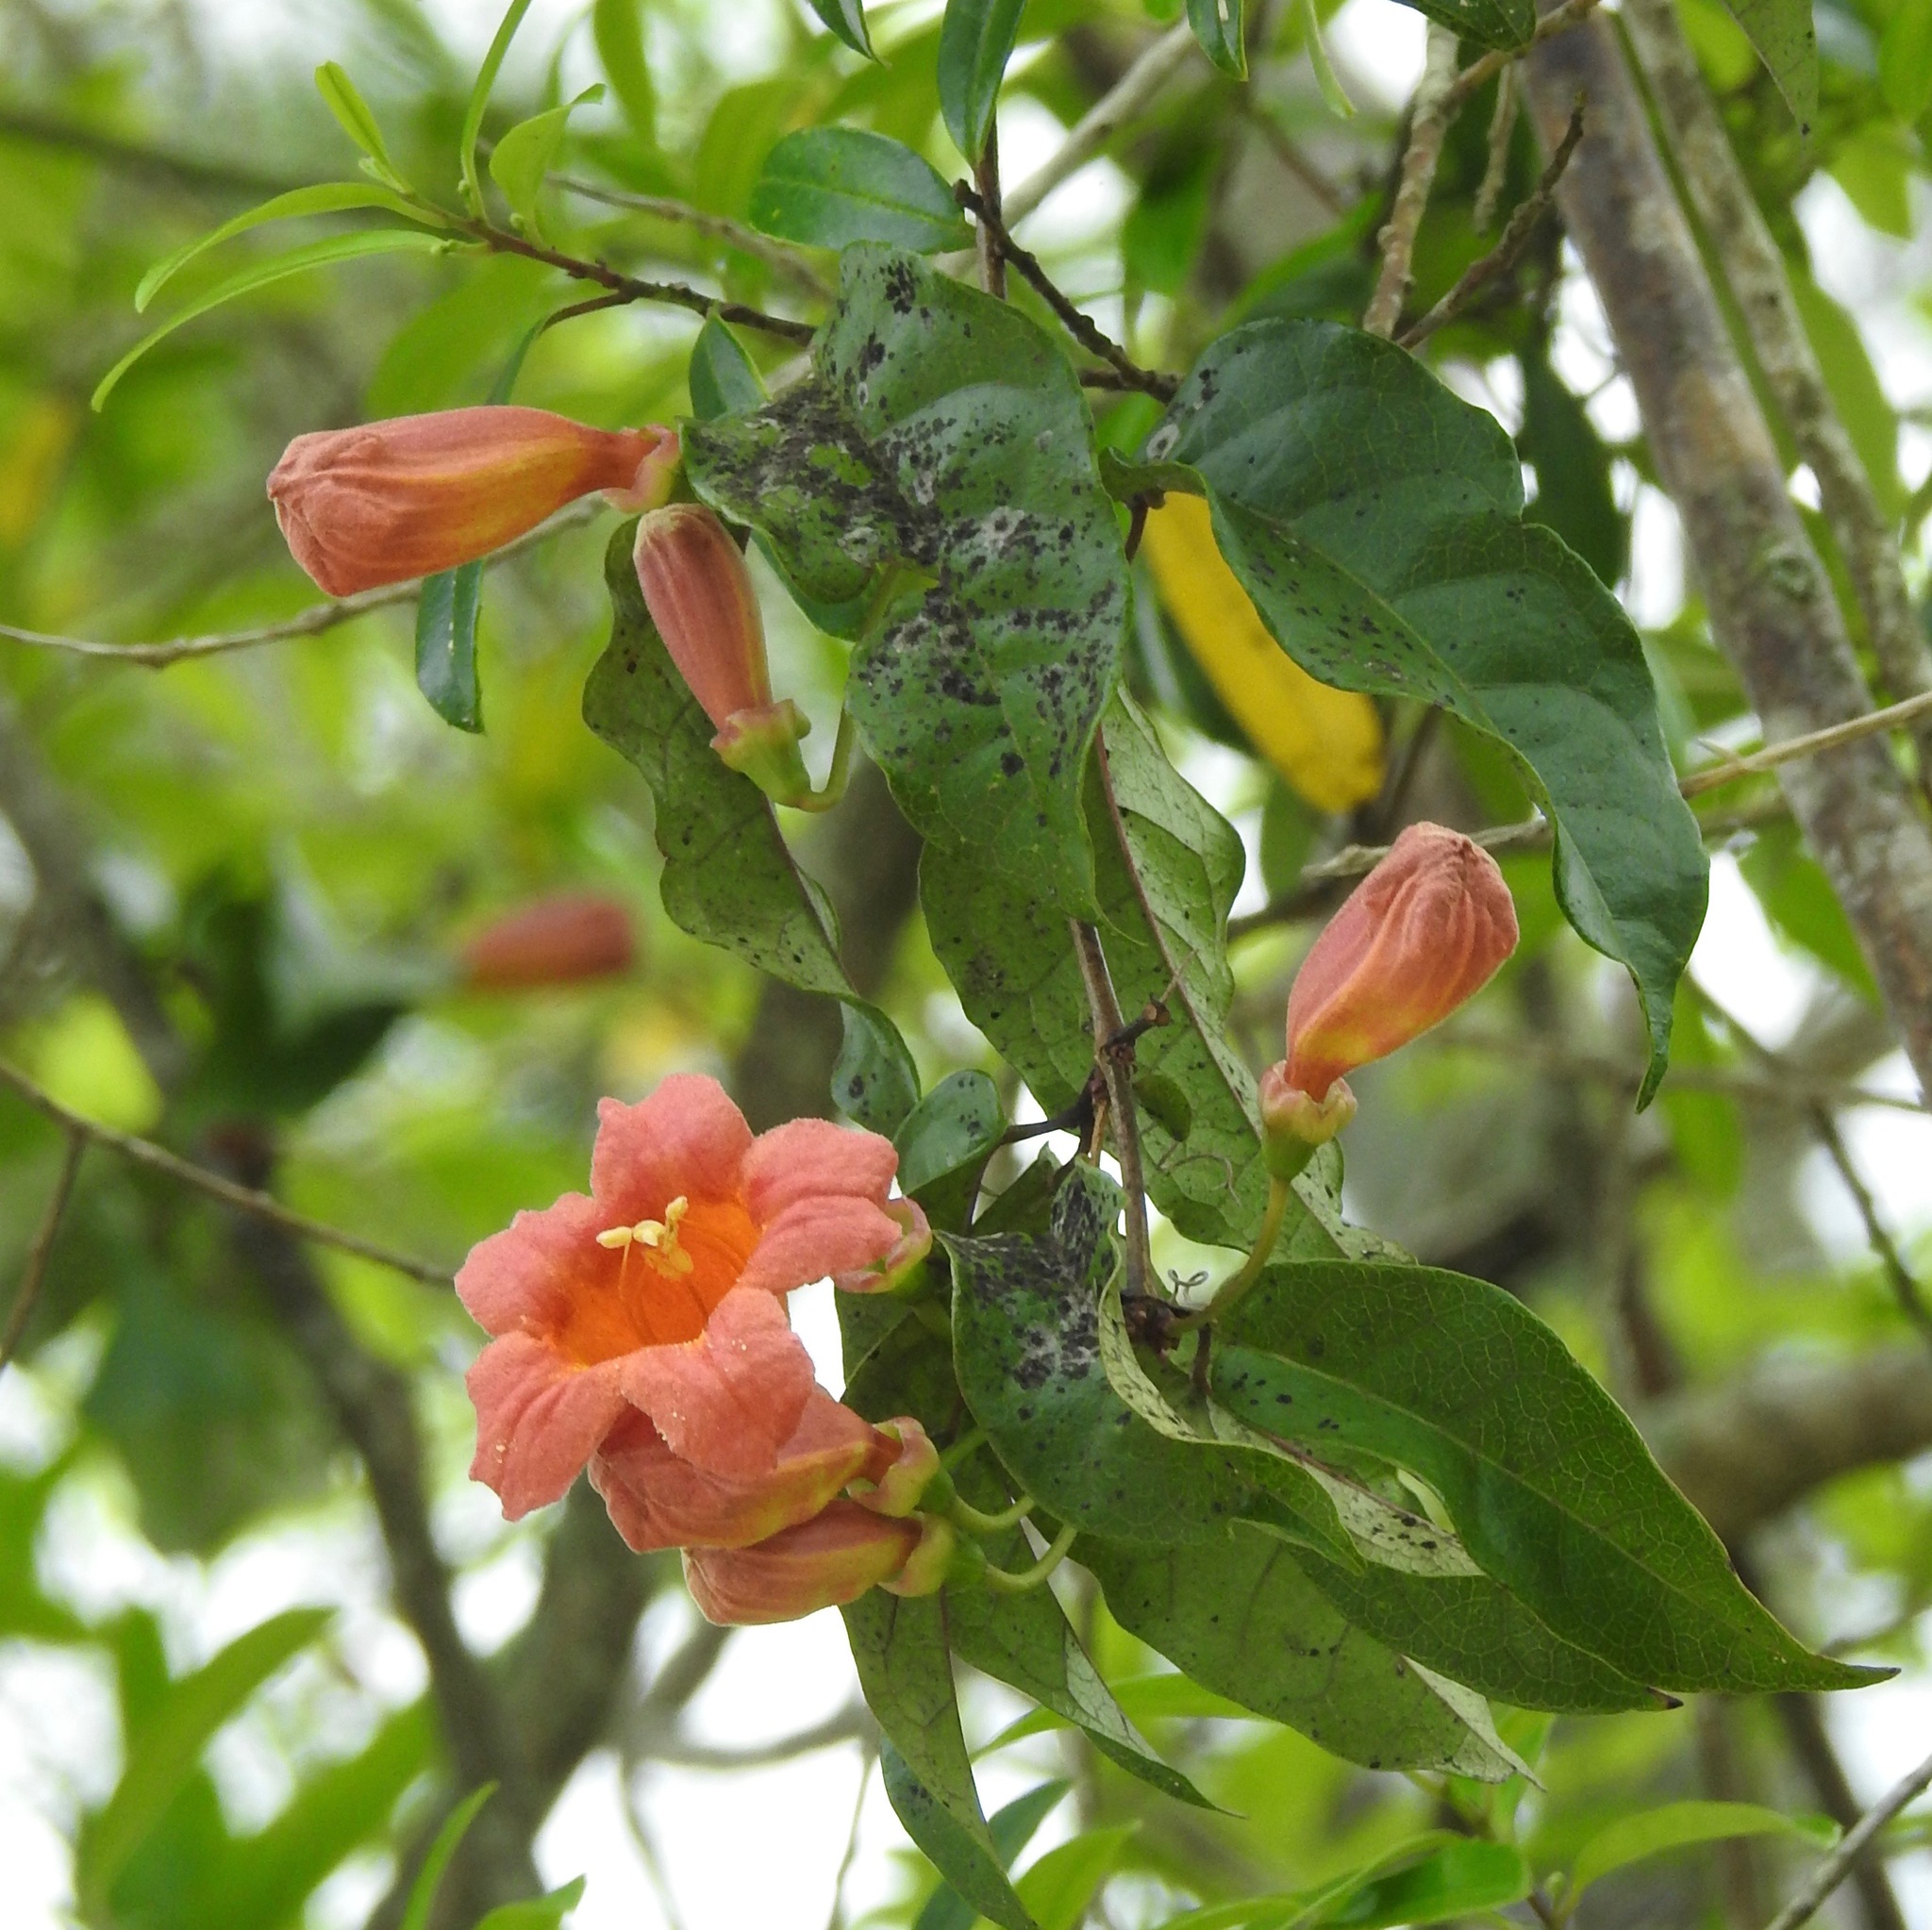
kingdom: Plantae
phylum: Tracheophyta
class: Magnoliopsida
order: Lamiales
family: Bignoniaceae
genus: Bignonia
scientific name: Bignonia capreolata
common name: Crossvine
